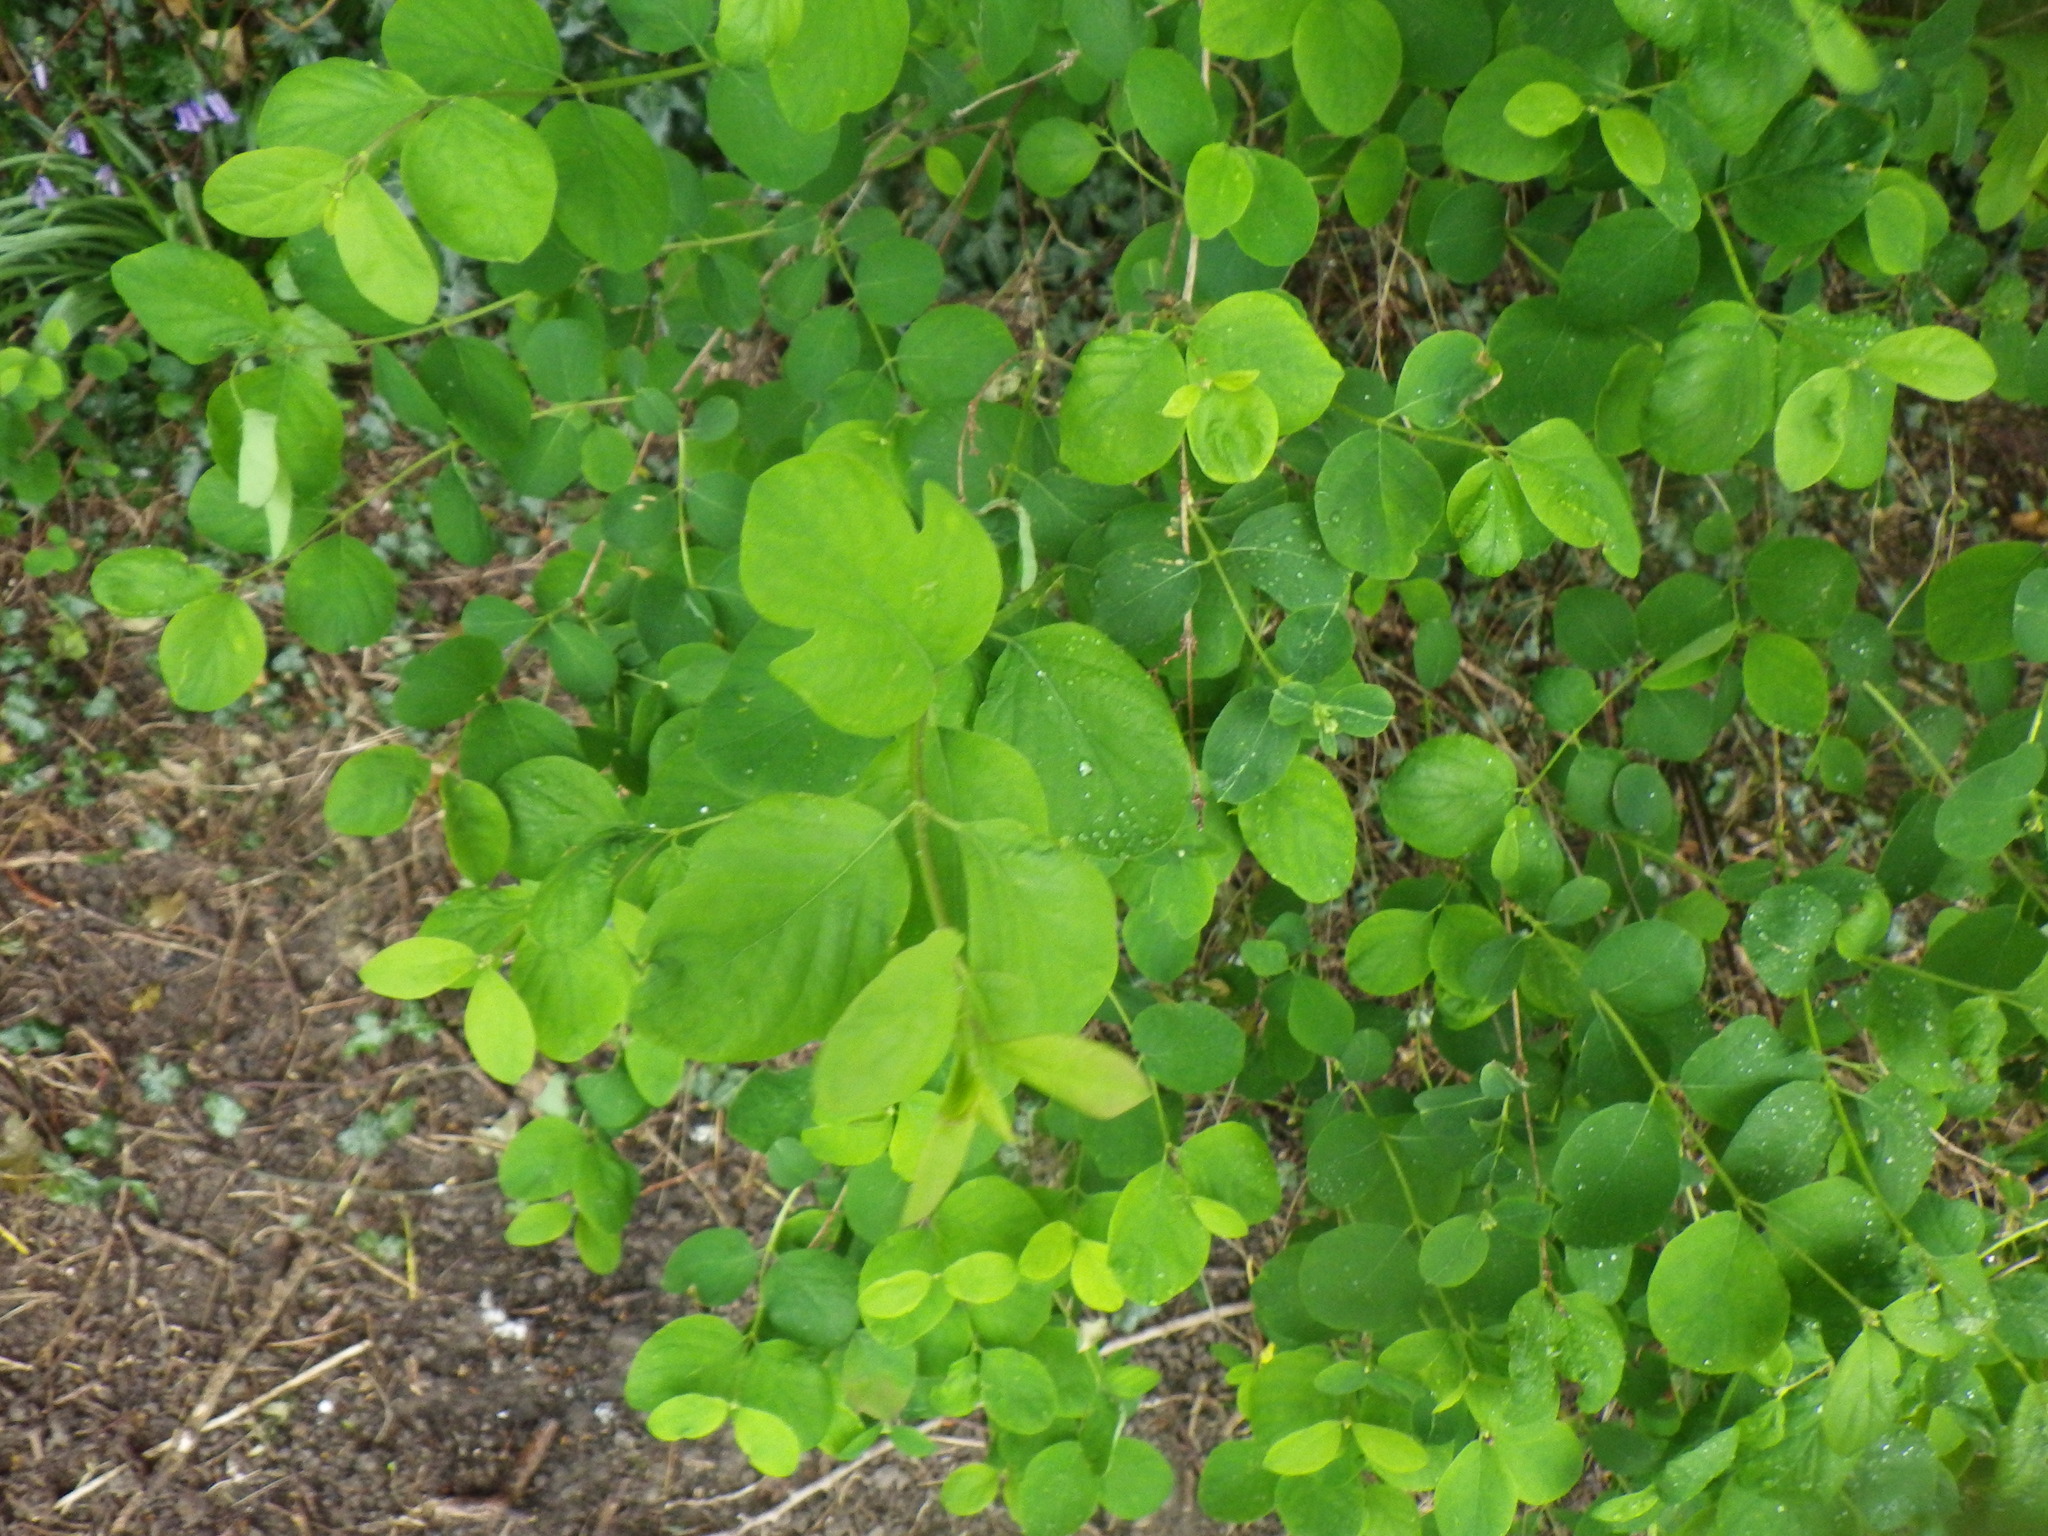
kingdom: Plantae
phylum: Tracheophyta
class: Magnoliopsida
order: Dipsacales
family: Caprifoliaceae
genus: Symphoricarpos
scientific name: Symphoricarpos albus
